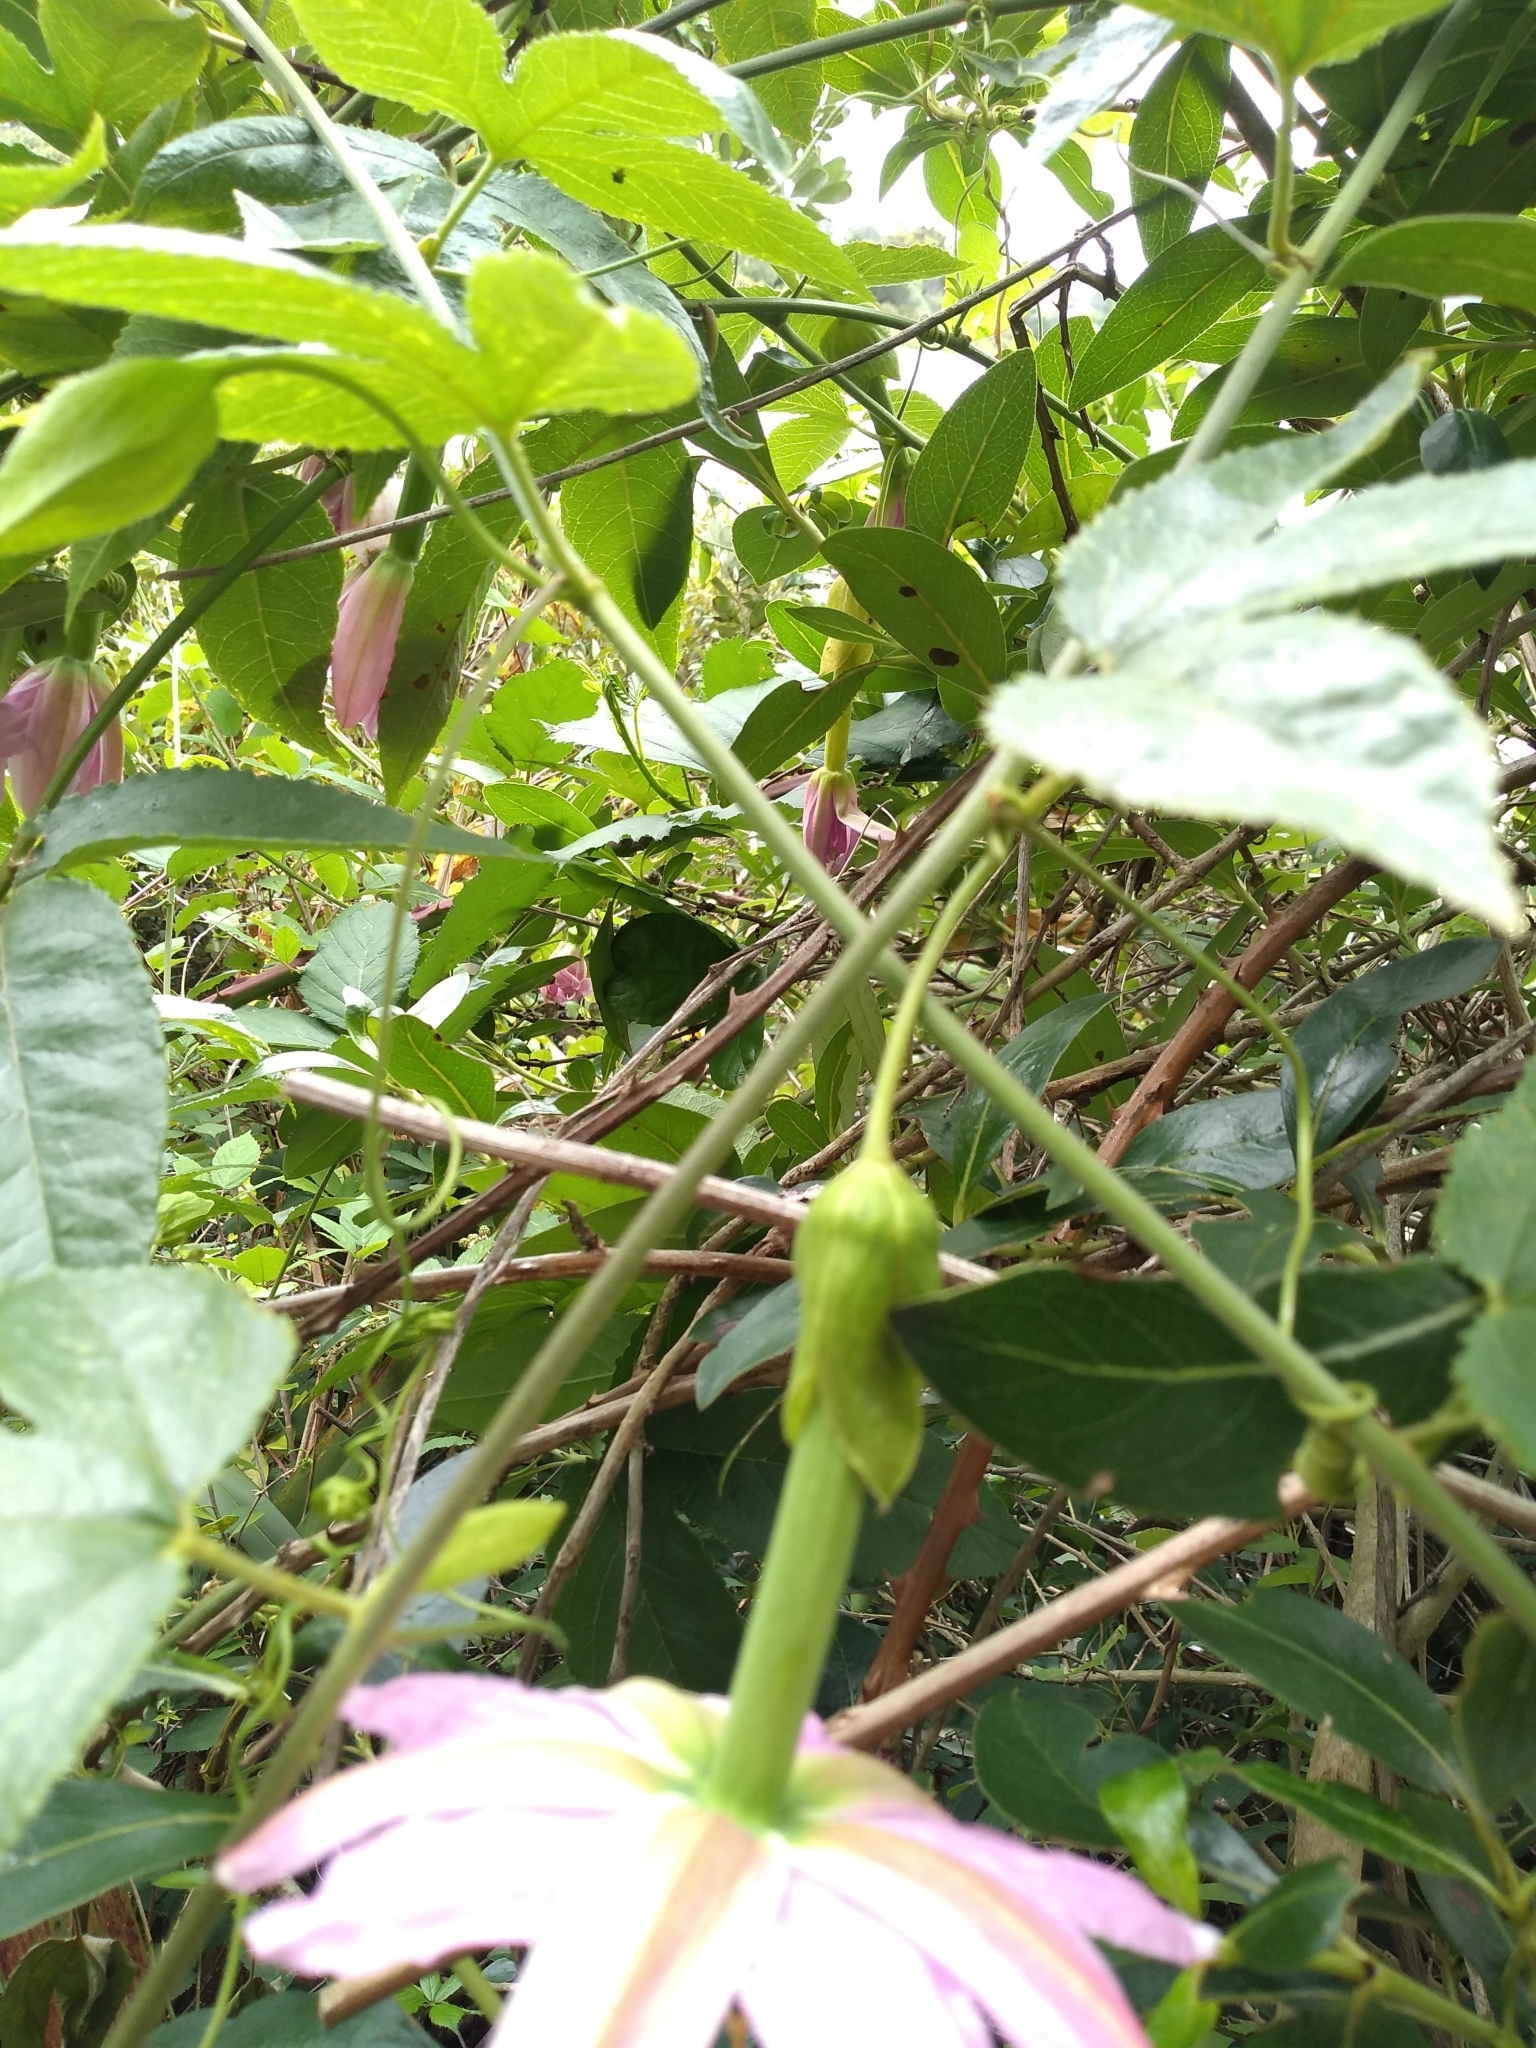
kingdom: Plantae
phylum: Tracheophyta
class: Magnoliopsida
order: Malpighiales
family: Passifloraceae
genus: Passiflora
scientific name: Passiflora tarminiana
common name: Banana poka
